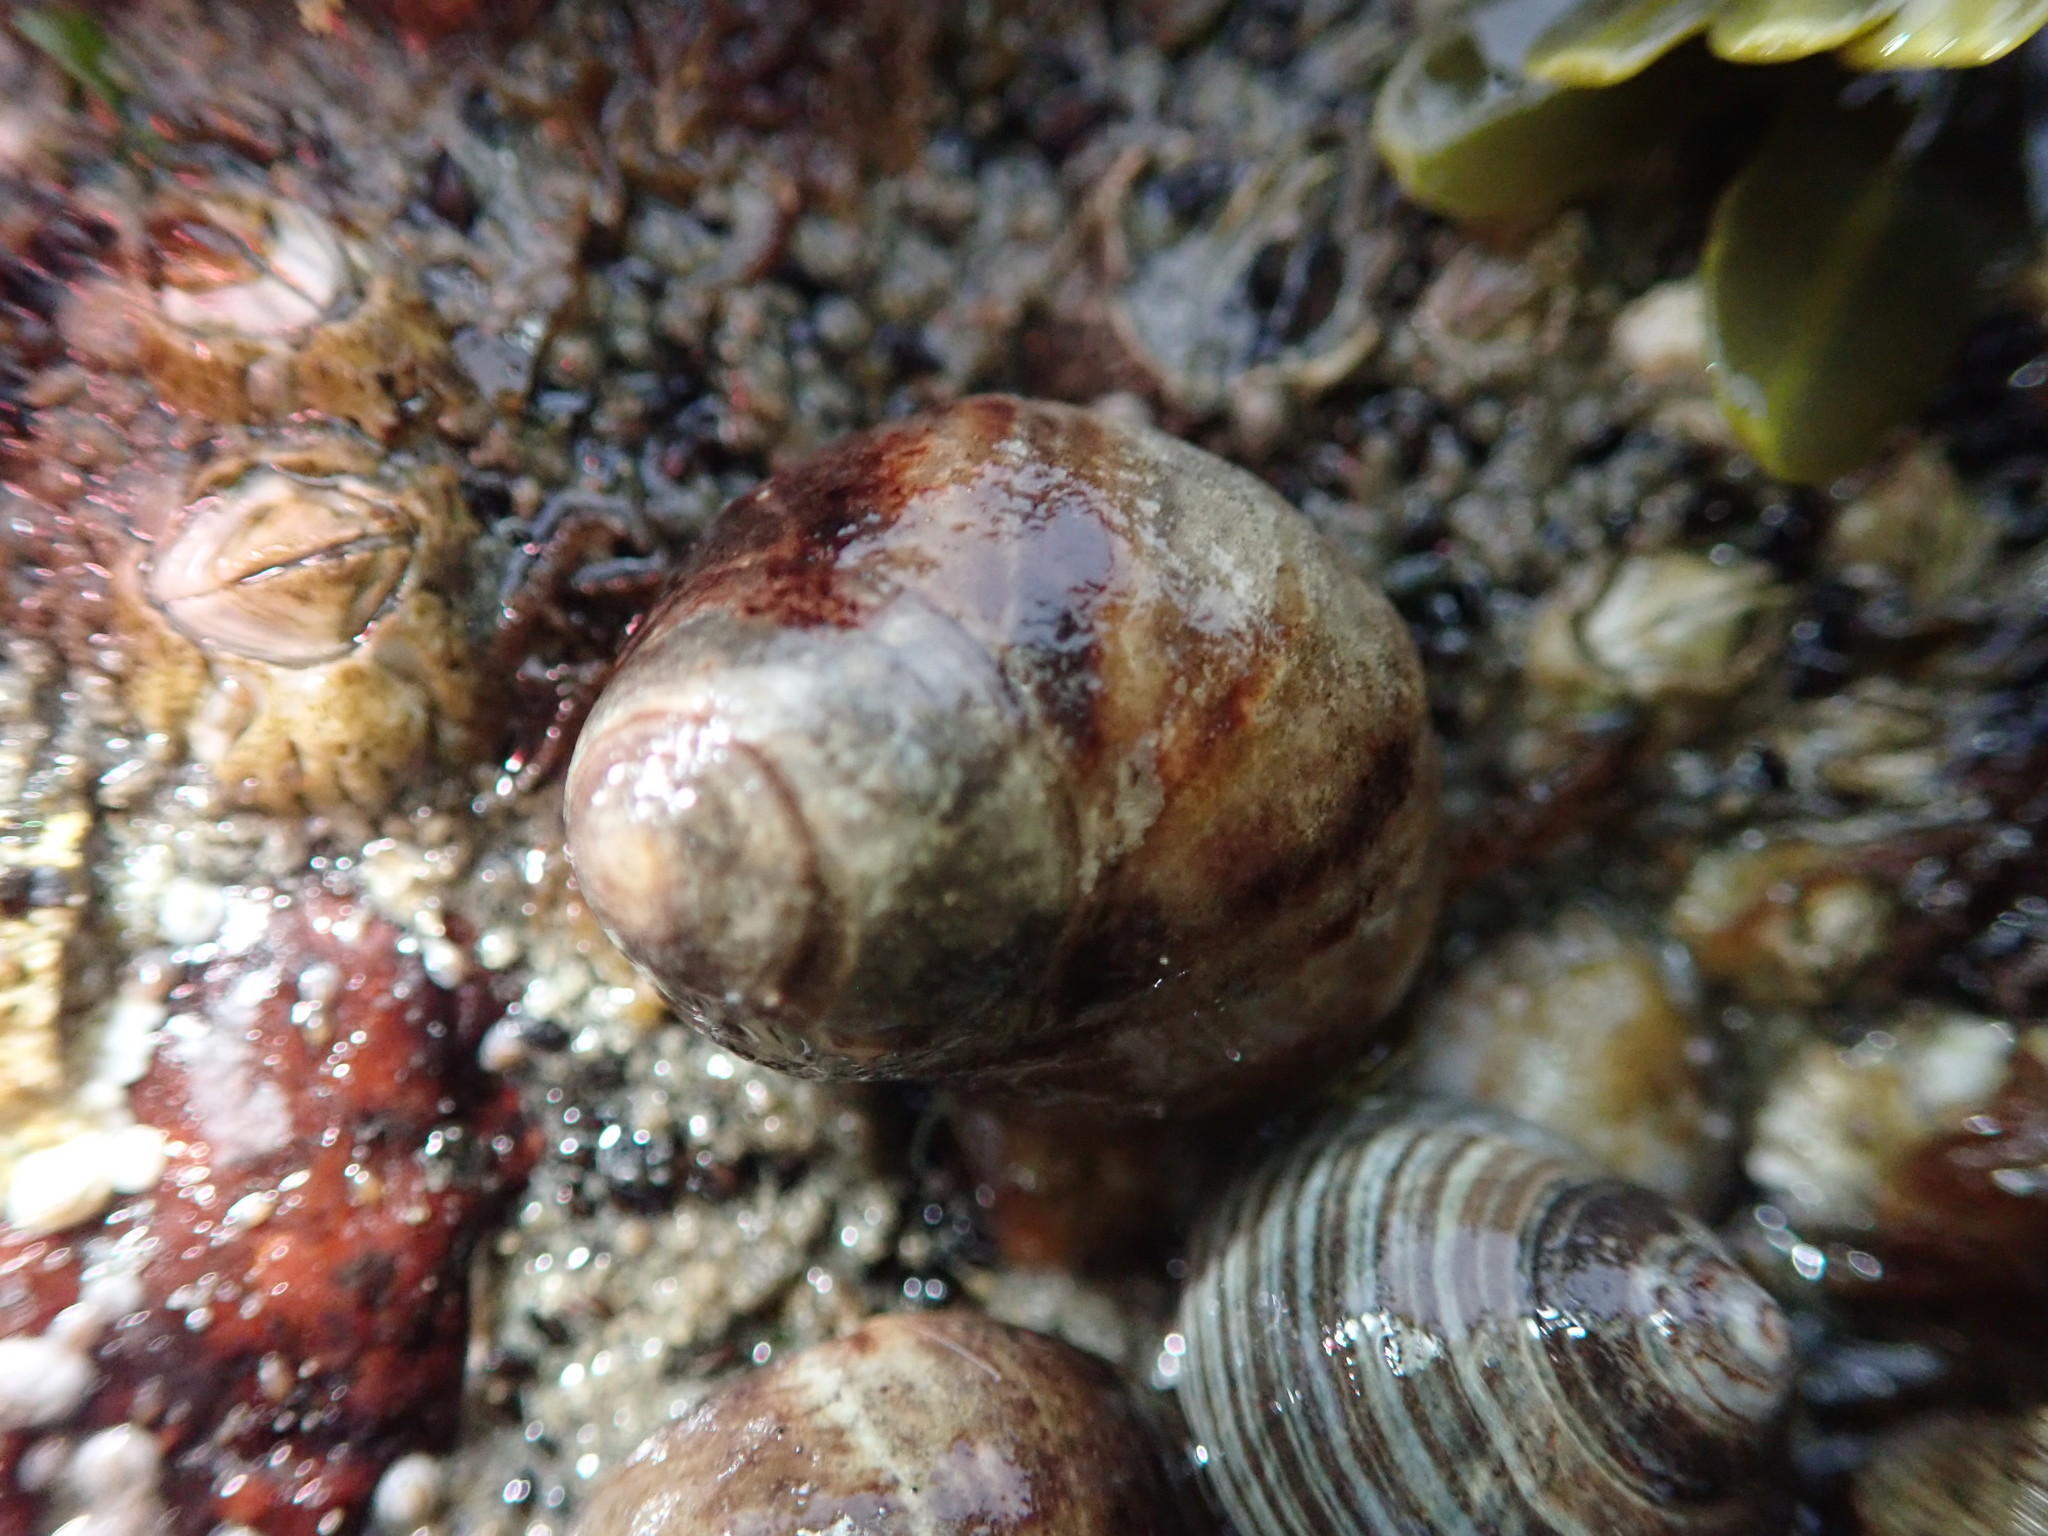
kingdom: Animalia
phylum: Mollusca
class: Gastropoda
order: Littorinimorpha
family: Littorinidae
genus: Littorina
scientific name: Littorina littorea
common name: Common periwinkle
